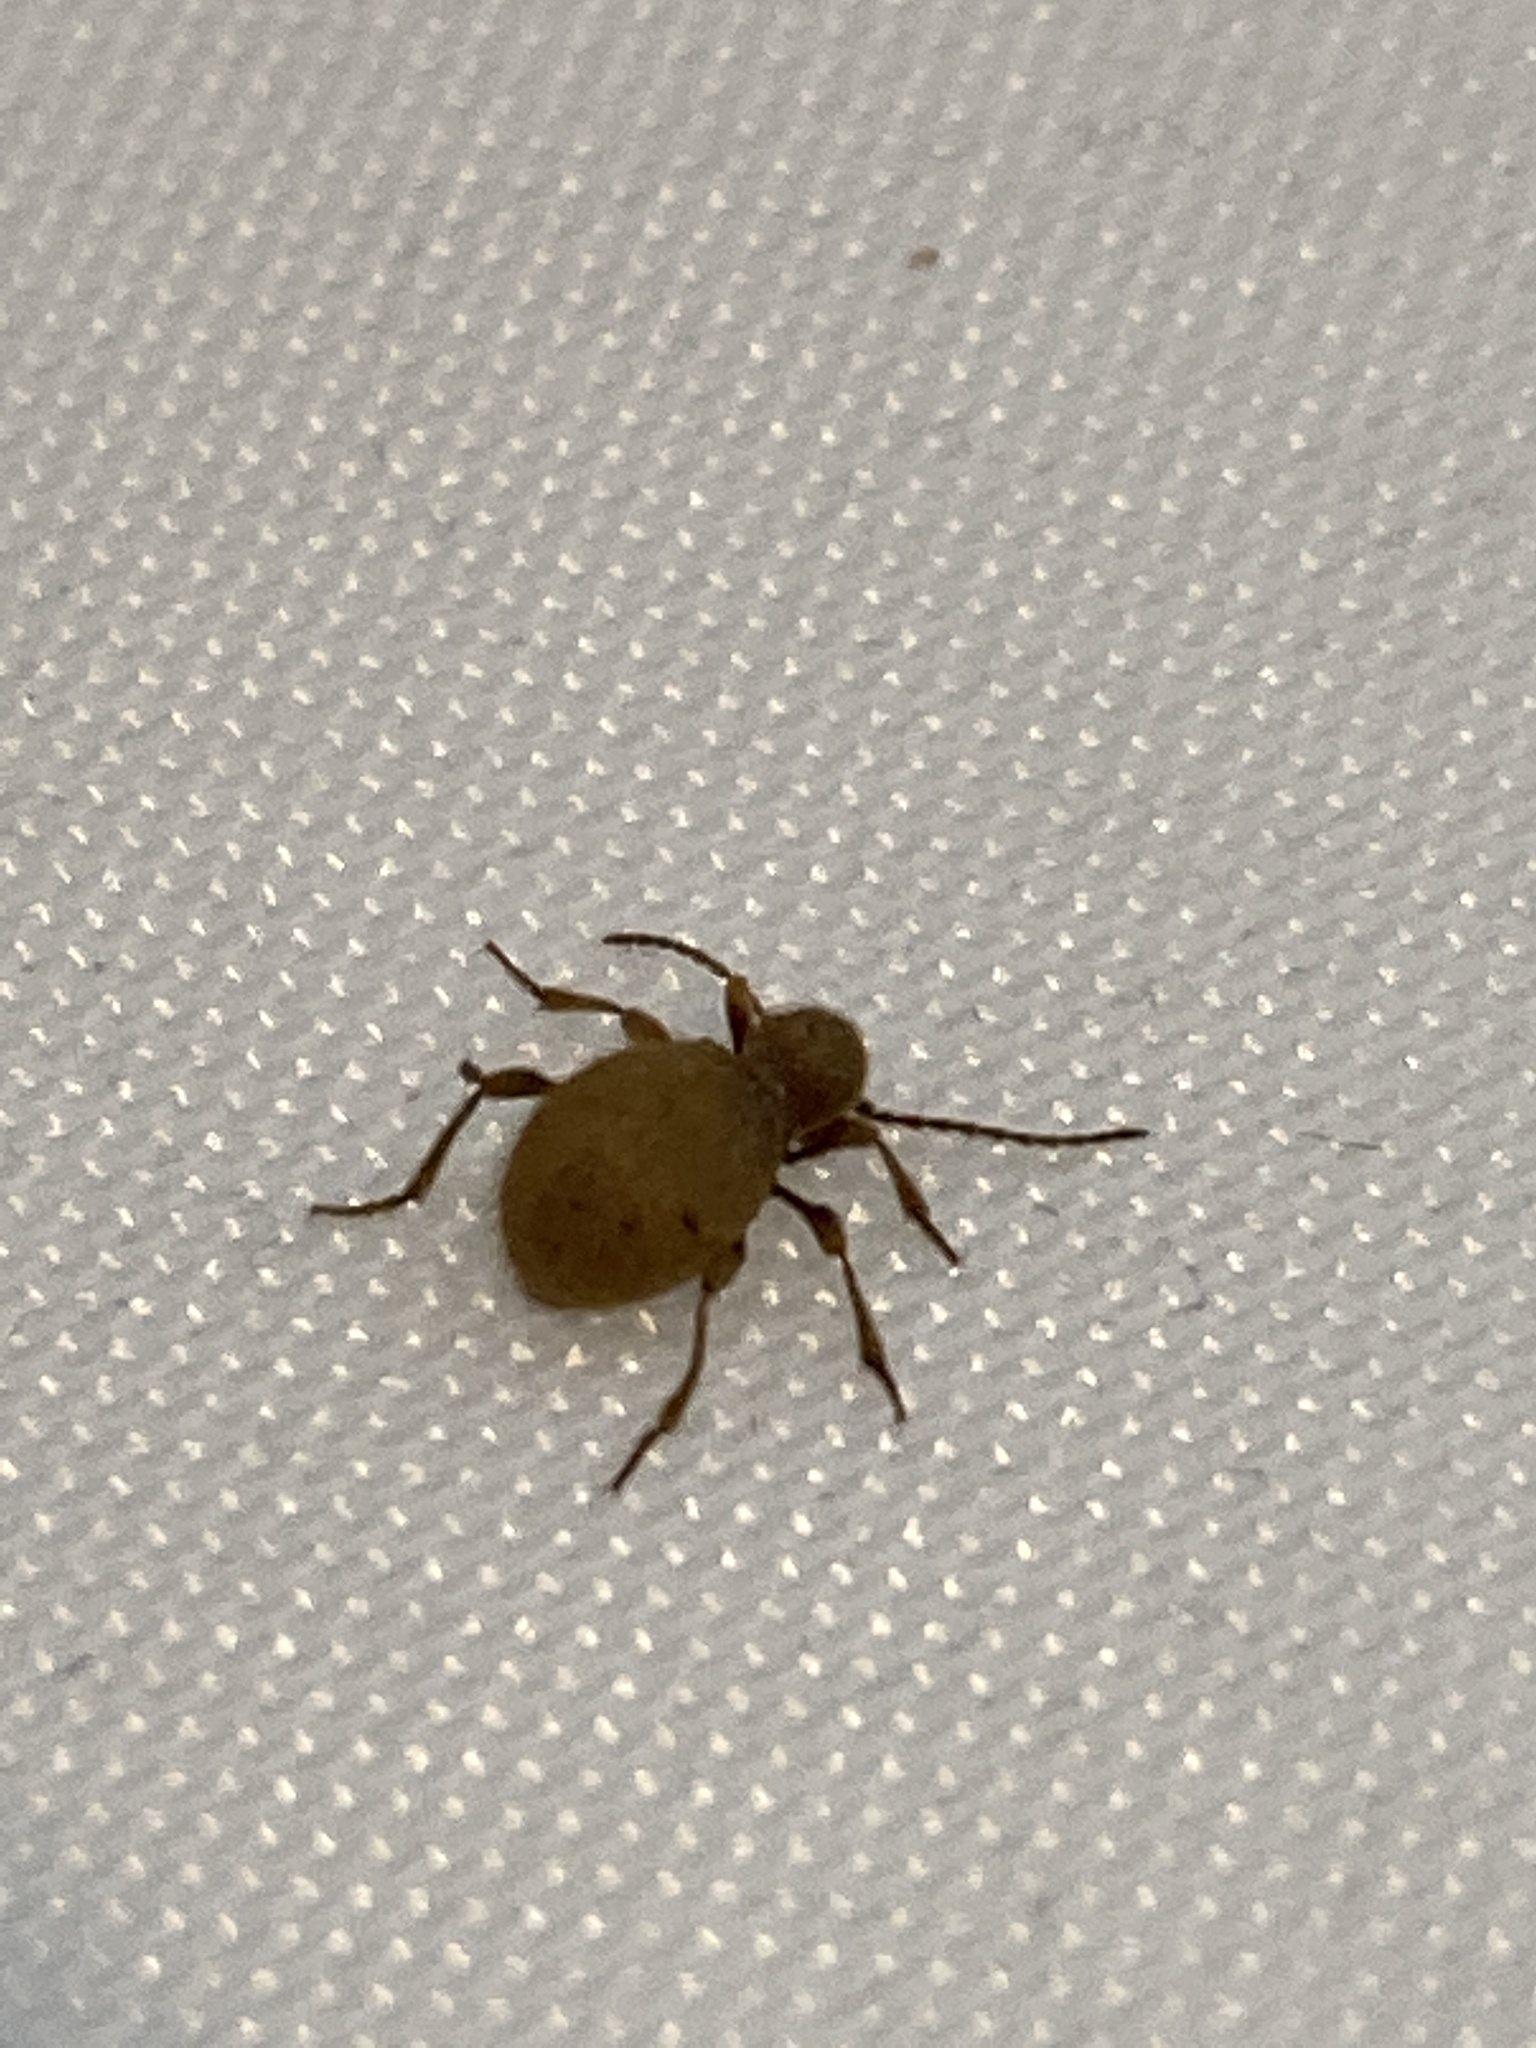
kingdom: Animalia
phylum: Arthropoda
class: Insecta
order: Coleoptera
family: Ptinidae
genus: Niptus
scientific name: Niptus hololeucus
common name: Golden spider beetle
